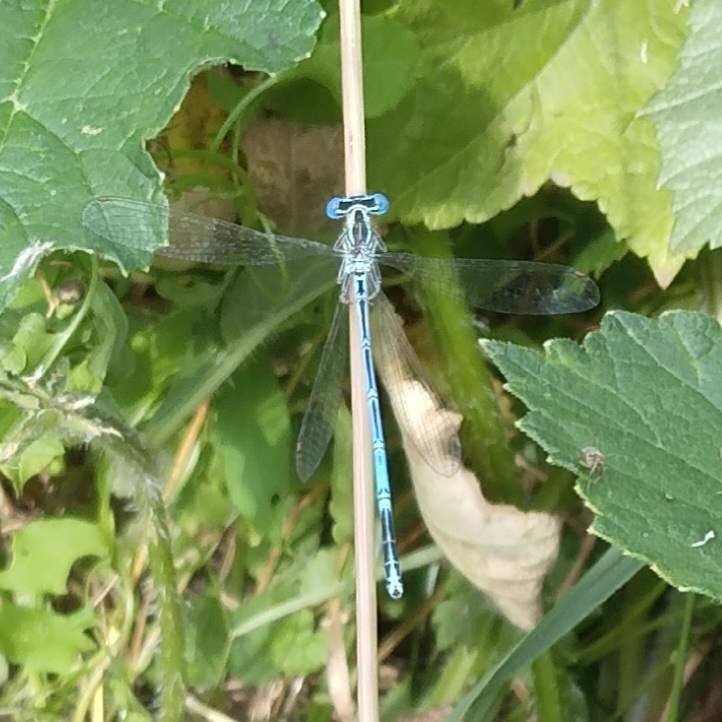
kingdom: Animalia
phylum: Arthropoda
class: Insecta
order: Odonata
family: Platycnemididae
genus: Platycnemis
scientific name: Platycnemis pennipes
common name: White-legged damselfly
